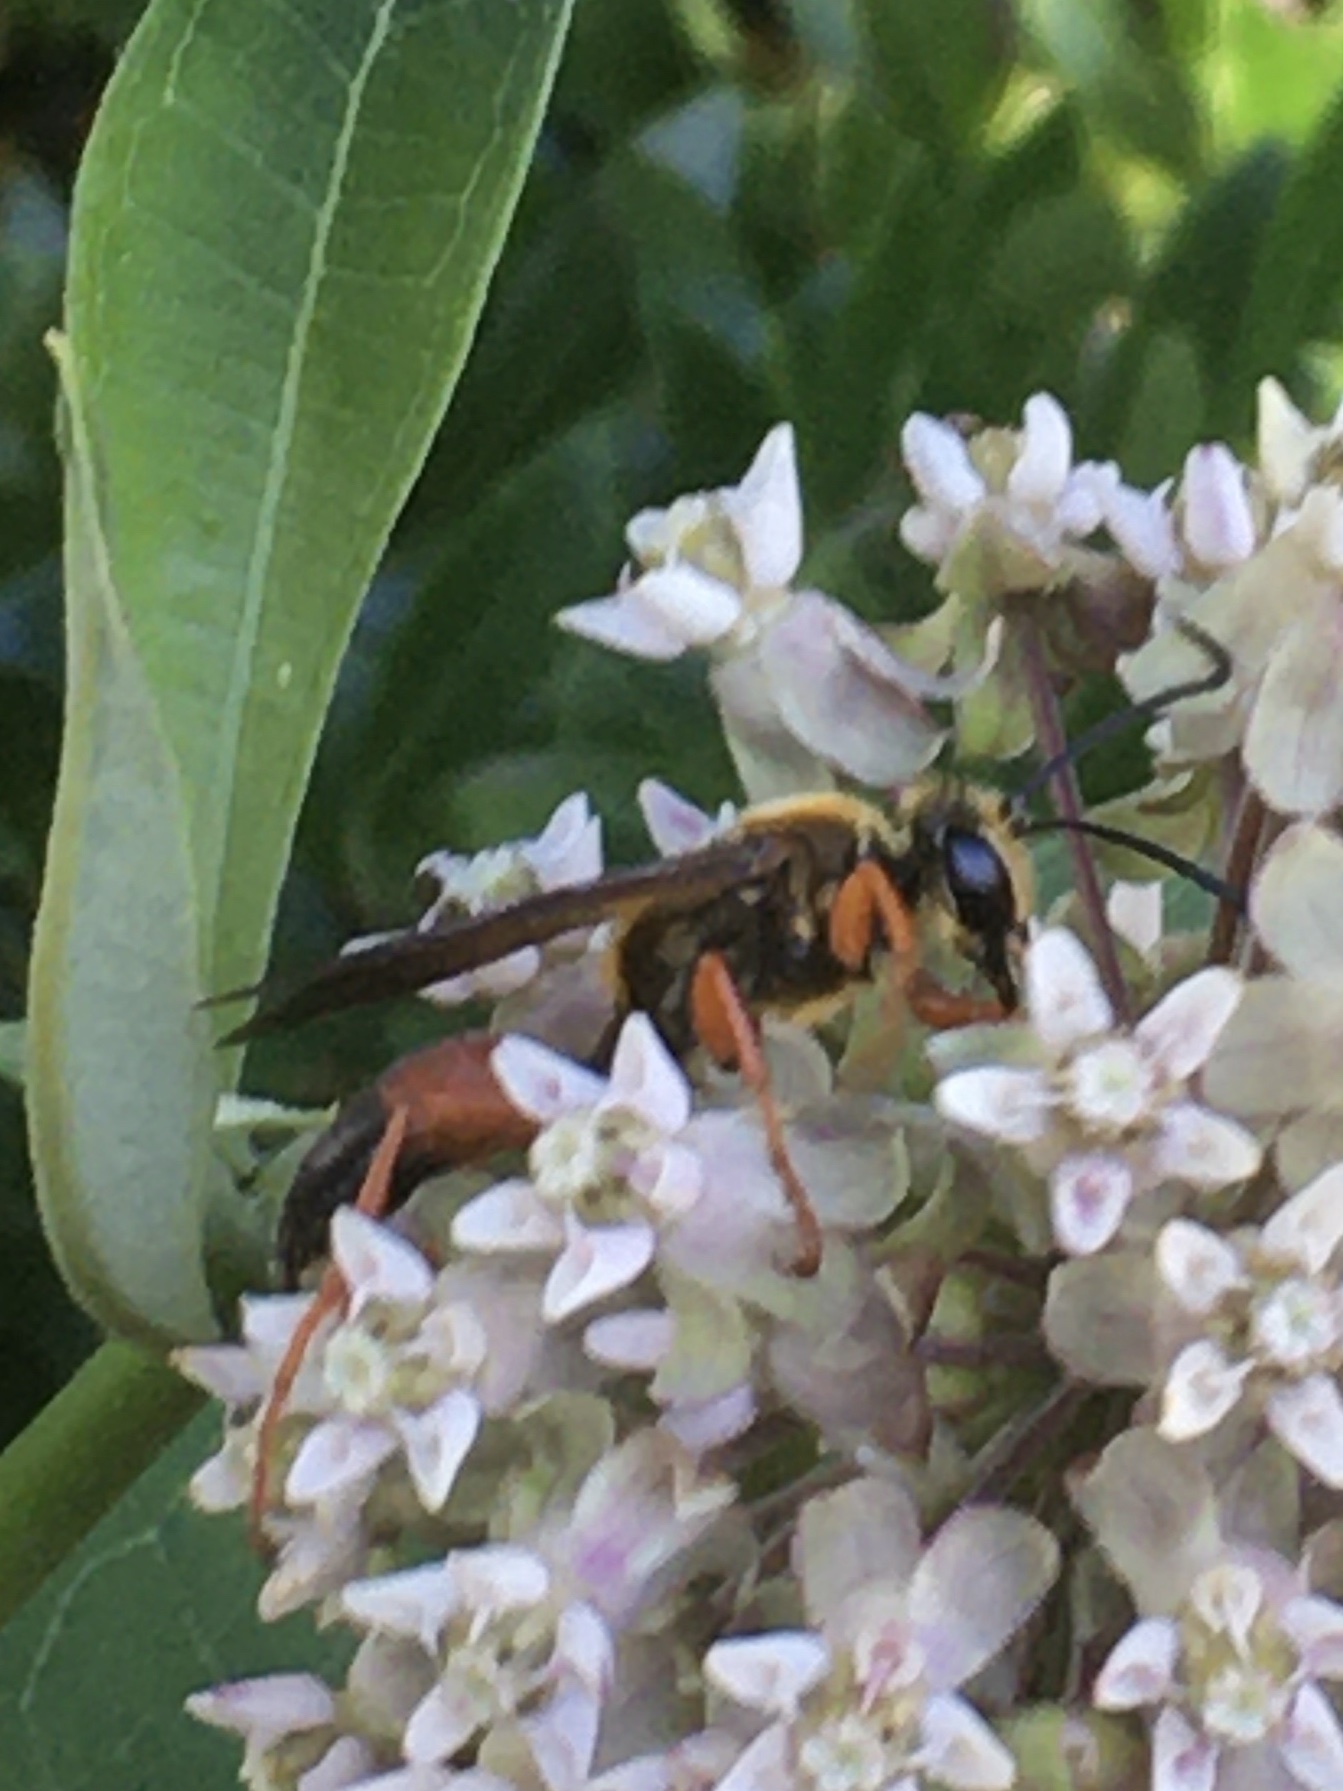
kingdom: Animalia
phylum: Arthropoda
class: Insecta
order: Hymenoptera
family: Sphecidae
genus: Sphex
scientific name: Sphex ichneumoneus
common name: Great golden digger wasp
